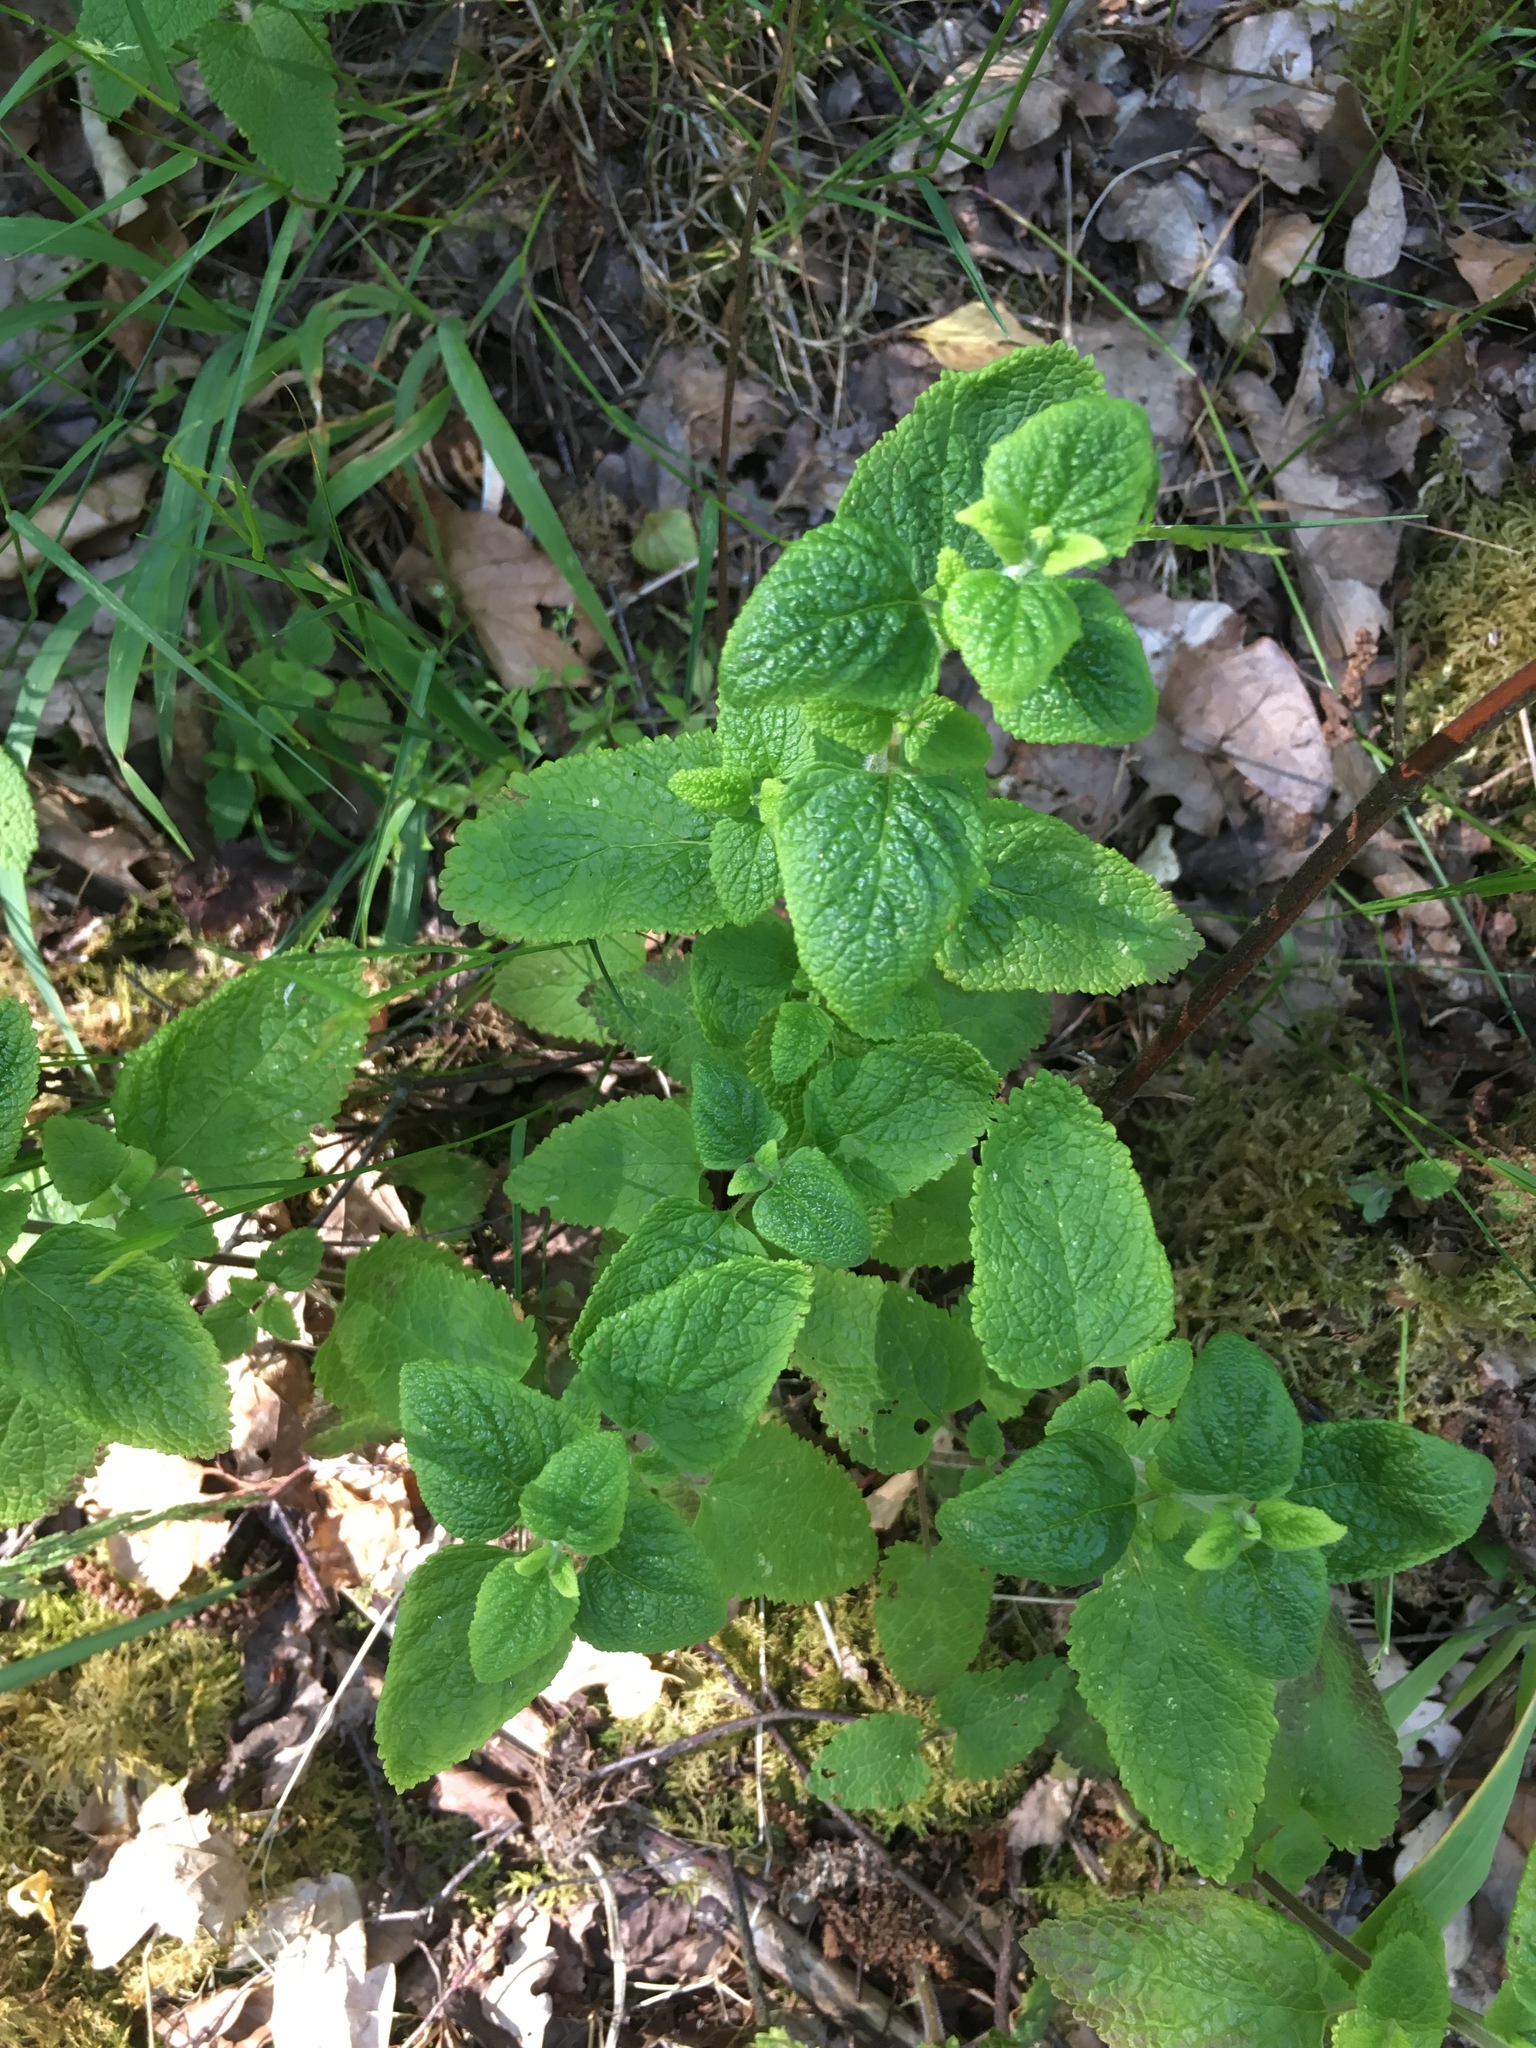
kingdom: Plantae
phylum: Tracheophyta
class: Magnoliopsida
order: Lamiales
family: Lamiaceae
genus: Melissa
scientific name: Melissa officinalis
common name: Balm
